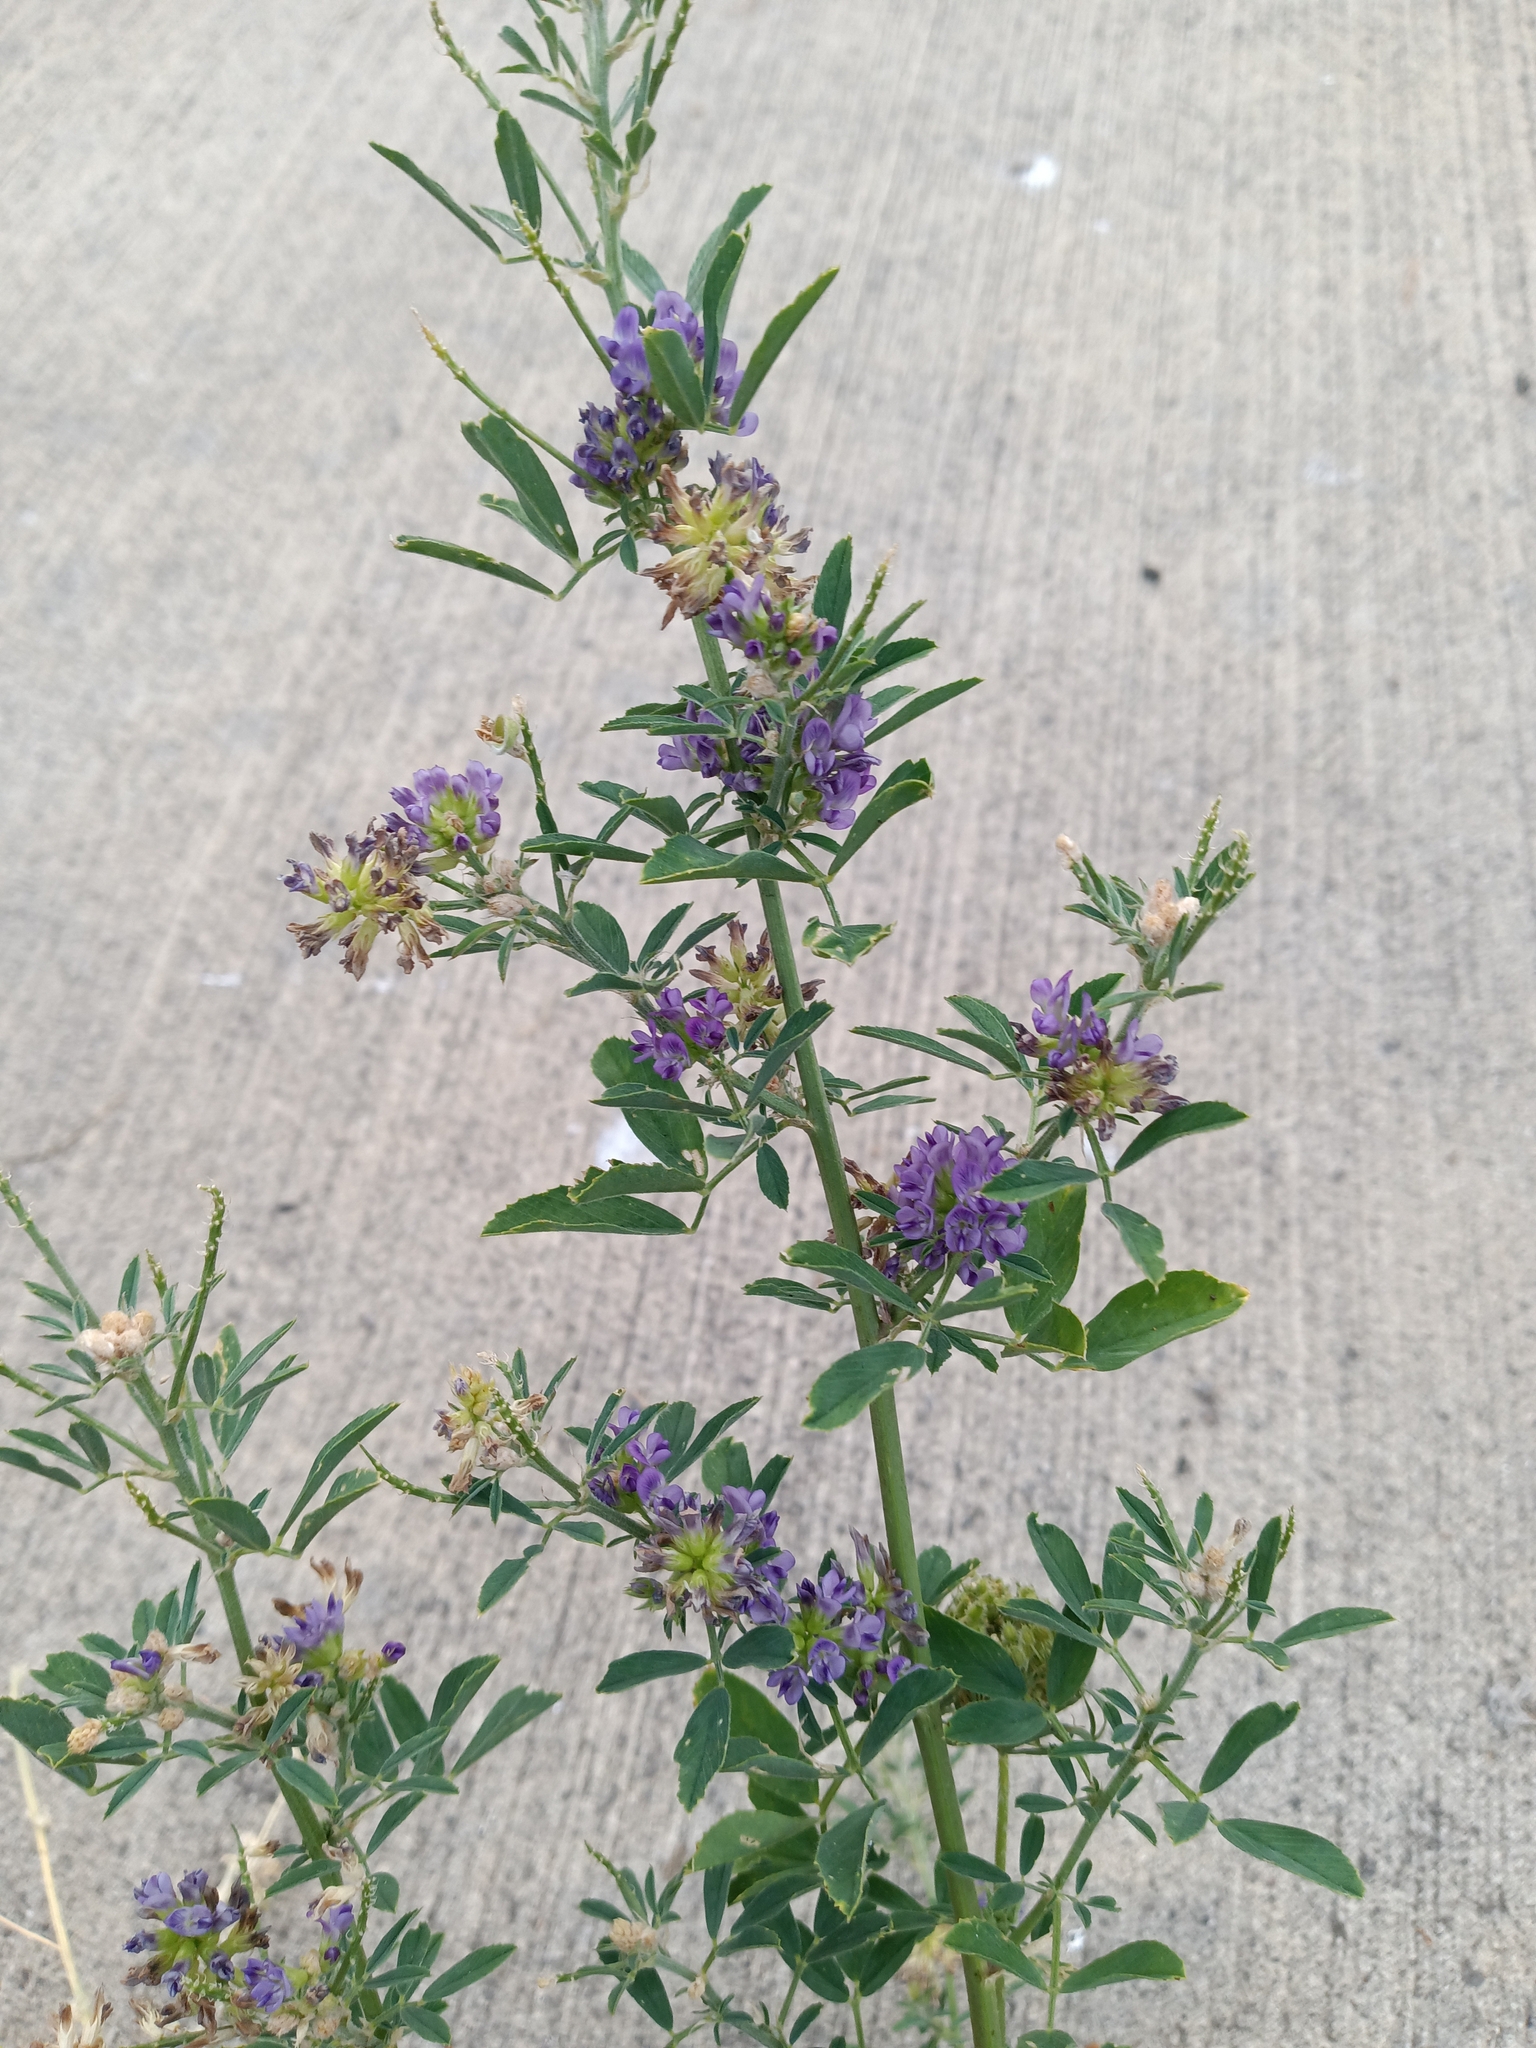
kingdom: Plantae
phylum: Tracheophyta
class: Magnoliopsida
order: Fabales
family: Fabaceae
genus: Medicago
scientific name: Medicago sativa
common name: Alfalfa
